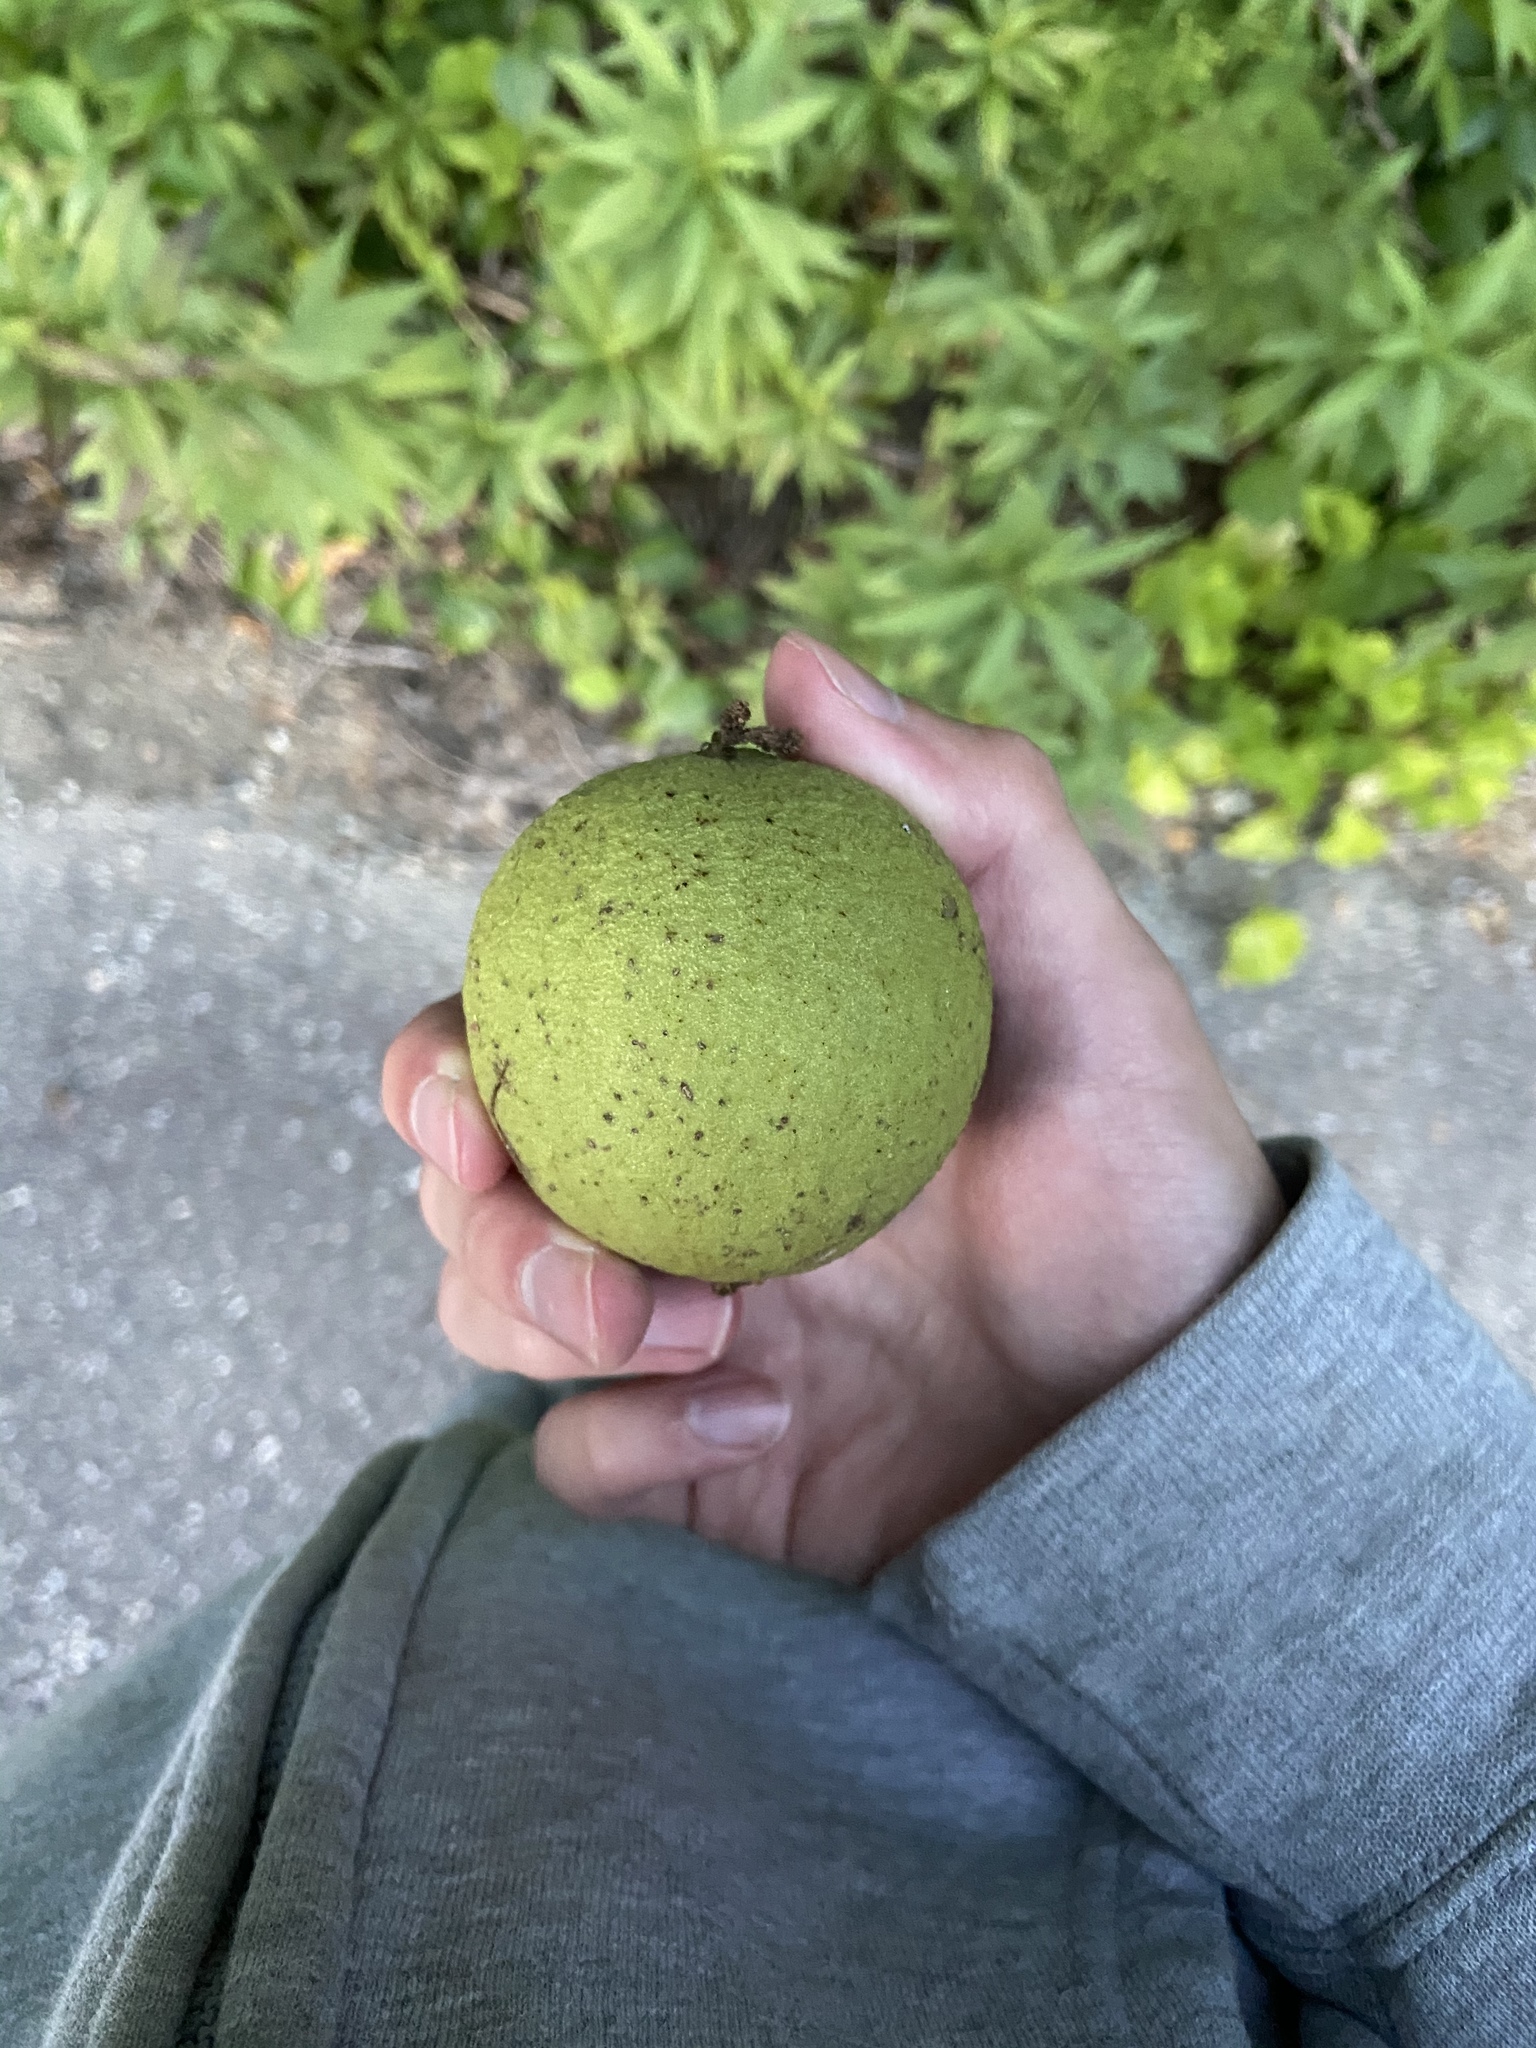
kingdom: Plantae
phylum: Tracheophyta
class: Magnoliopsida
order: Fagales
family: Juglandaceae
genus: Juglans
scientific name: Juglans nigra
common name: Black walnut
